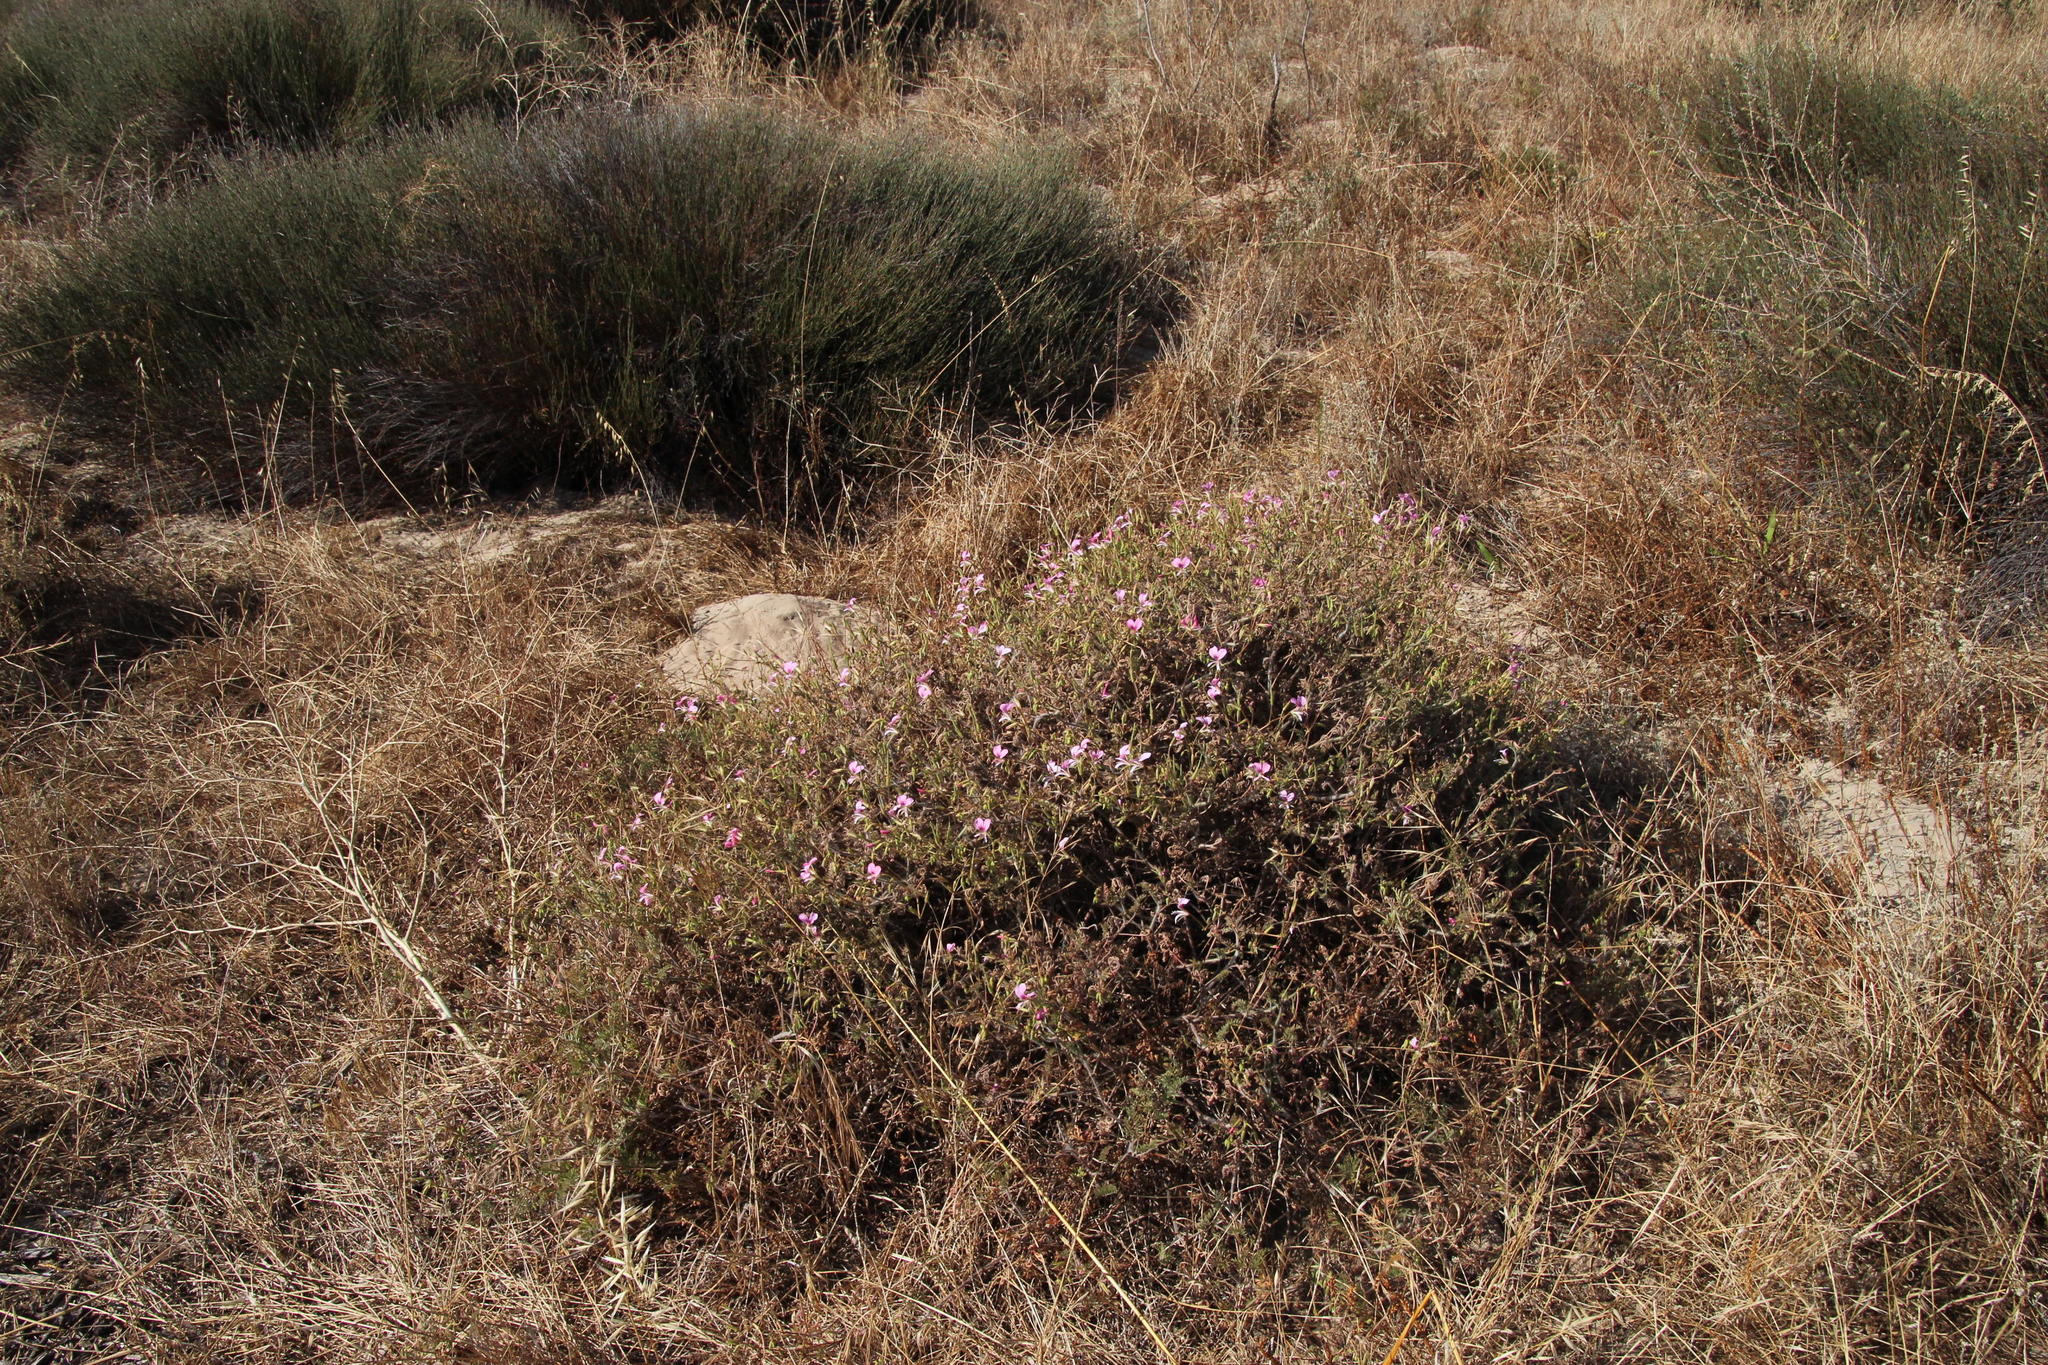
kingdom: Plantae
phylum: Tracheophyta
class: Magnoliopsida
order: Geraniales
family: Geraniaceae
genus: Pelargonium
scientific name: Pelargonium myrrhifolium
